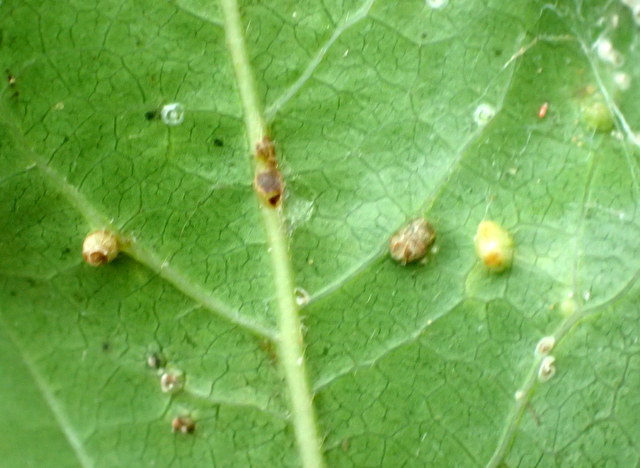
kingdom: Animalia
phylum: Arthropoda
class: Insecta
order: Hemiptera
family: Diaspididae
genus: Diaspidiotus
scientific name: Diaspidiotus liquidambaris
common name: Sweet gum scale
